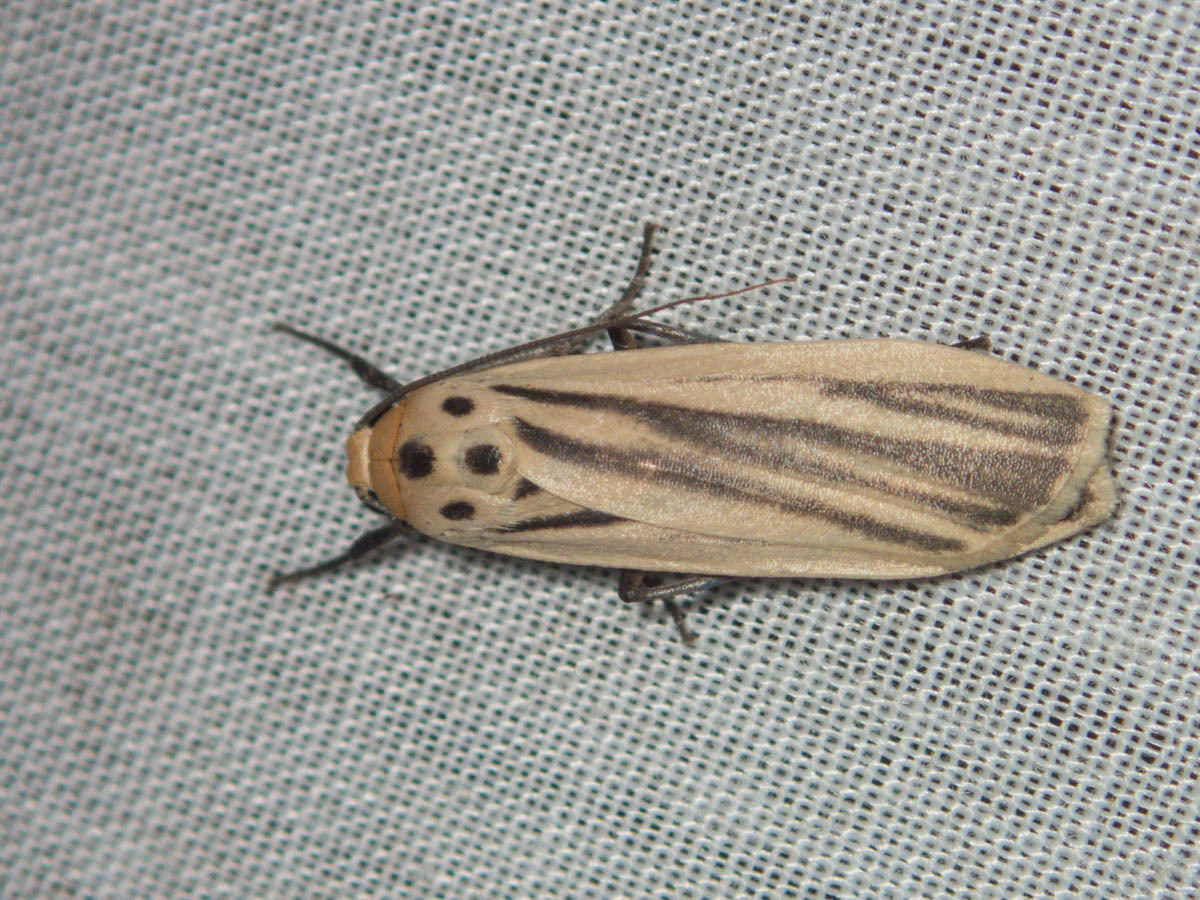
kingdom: Animalia
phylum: Arthropoda
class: Insecta
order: Lepidoptera
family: Erebidae
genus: Tigrioides
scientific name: Tigrioides leucanioides
